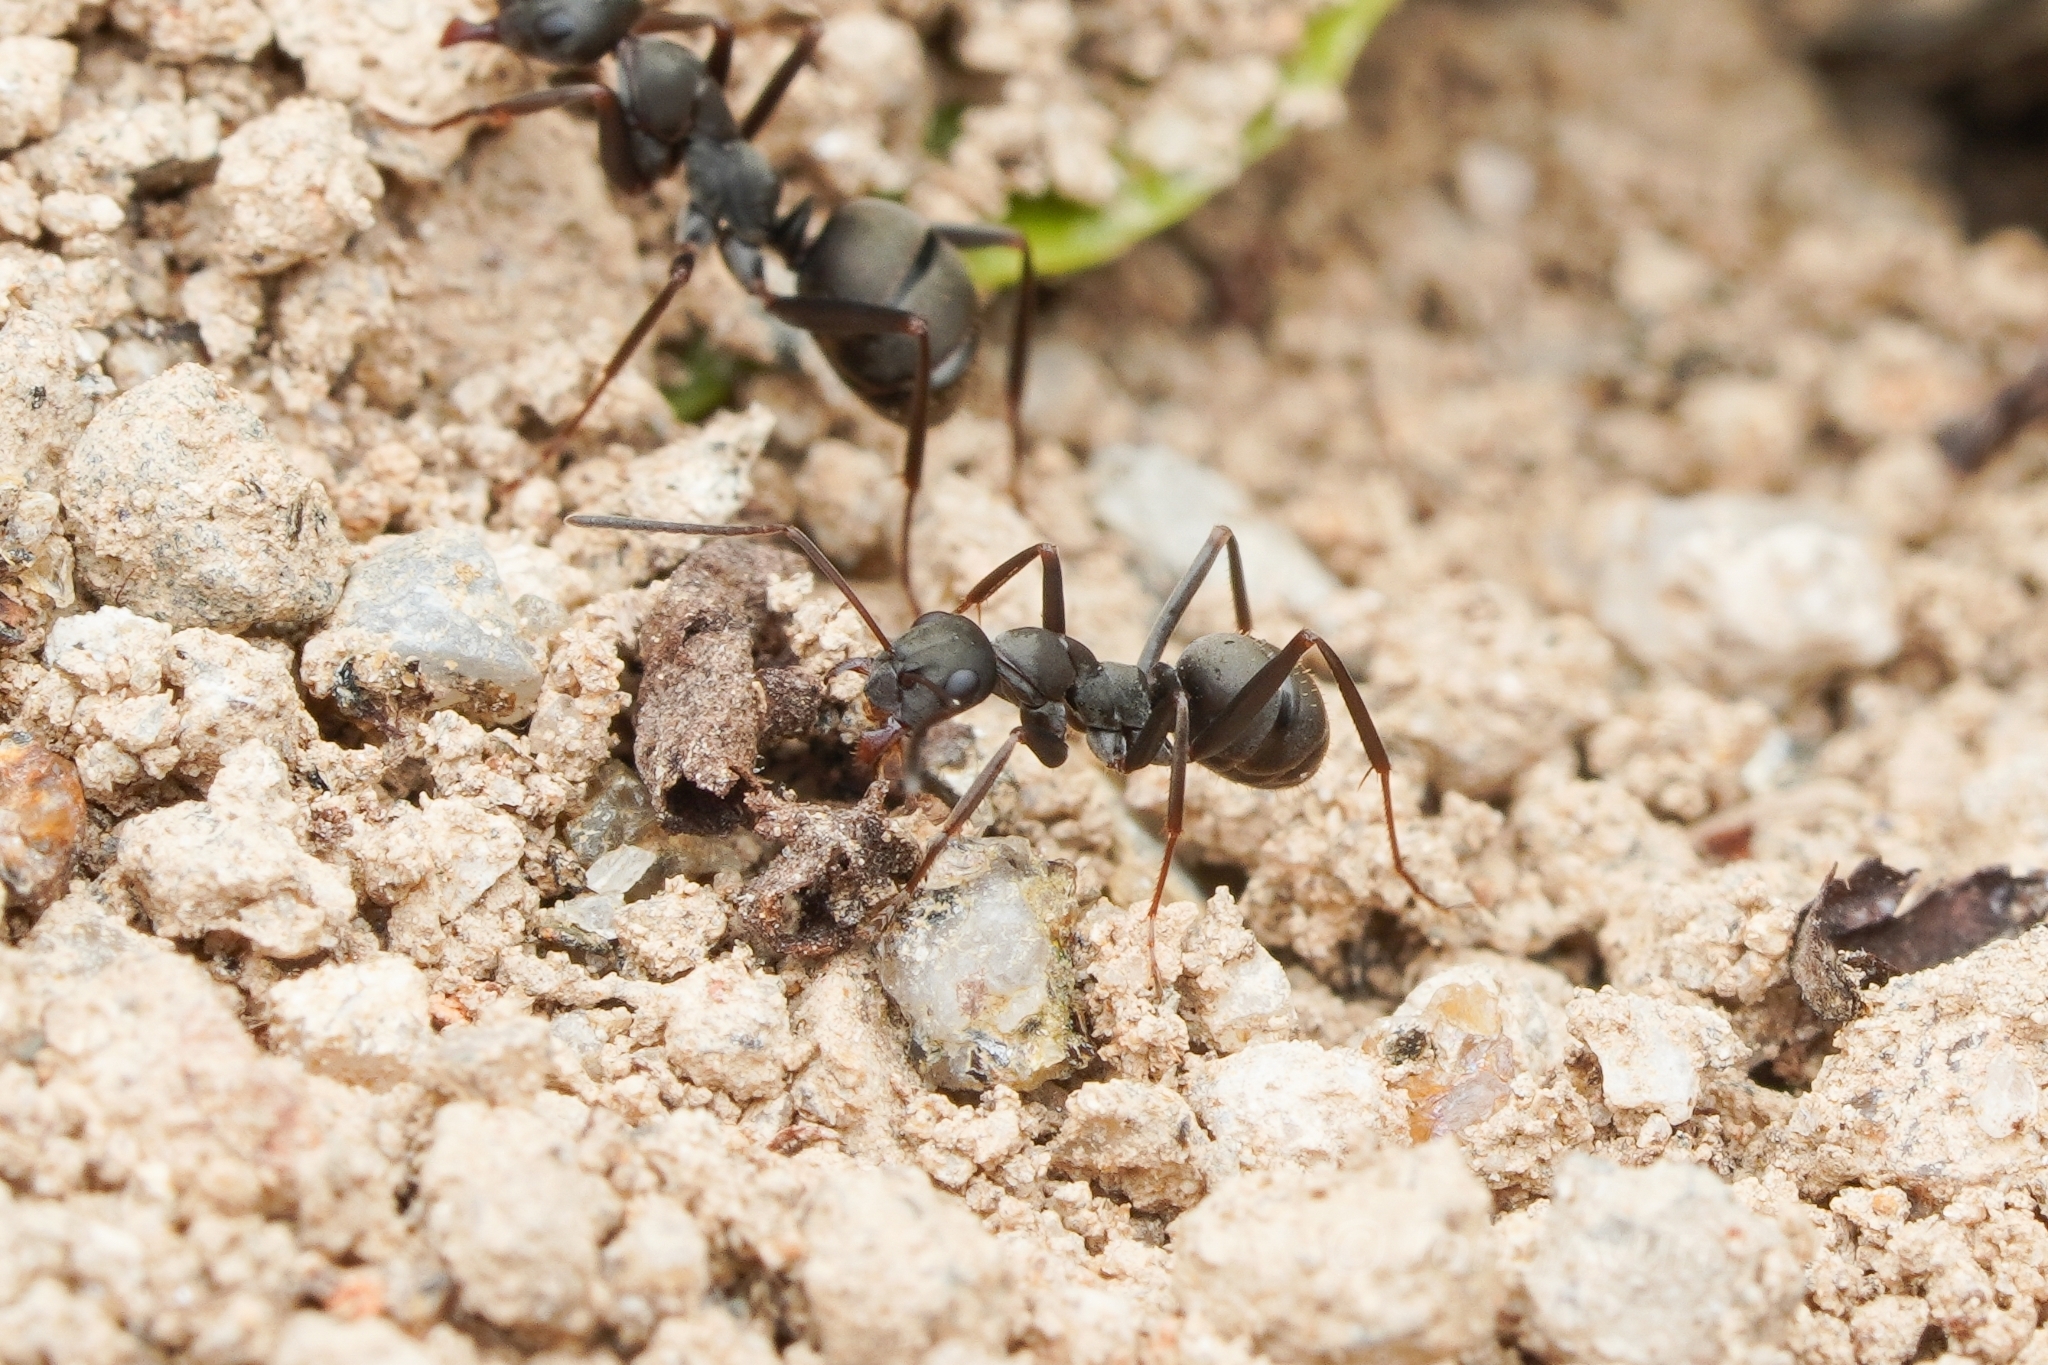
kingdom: Animalia
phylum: Arthropoda
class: Insecta
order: Hymenoptera
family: Formicidae
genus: Formica
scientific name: Formica japonica
